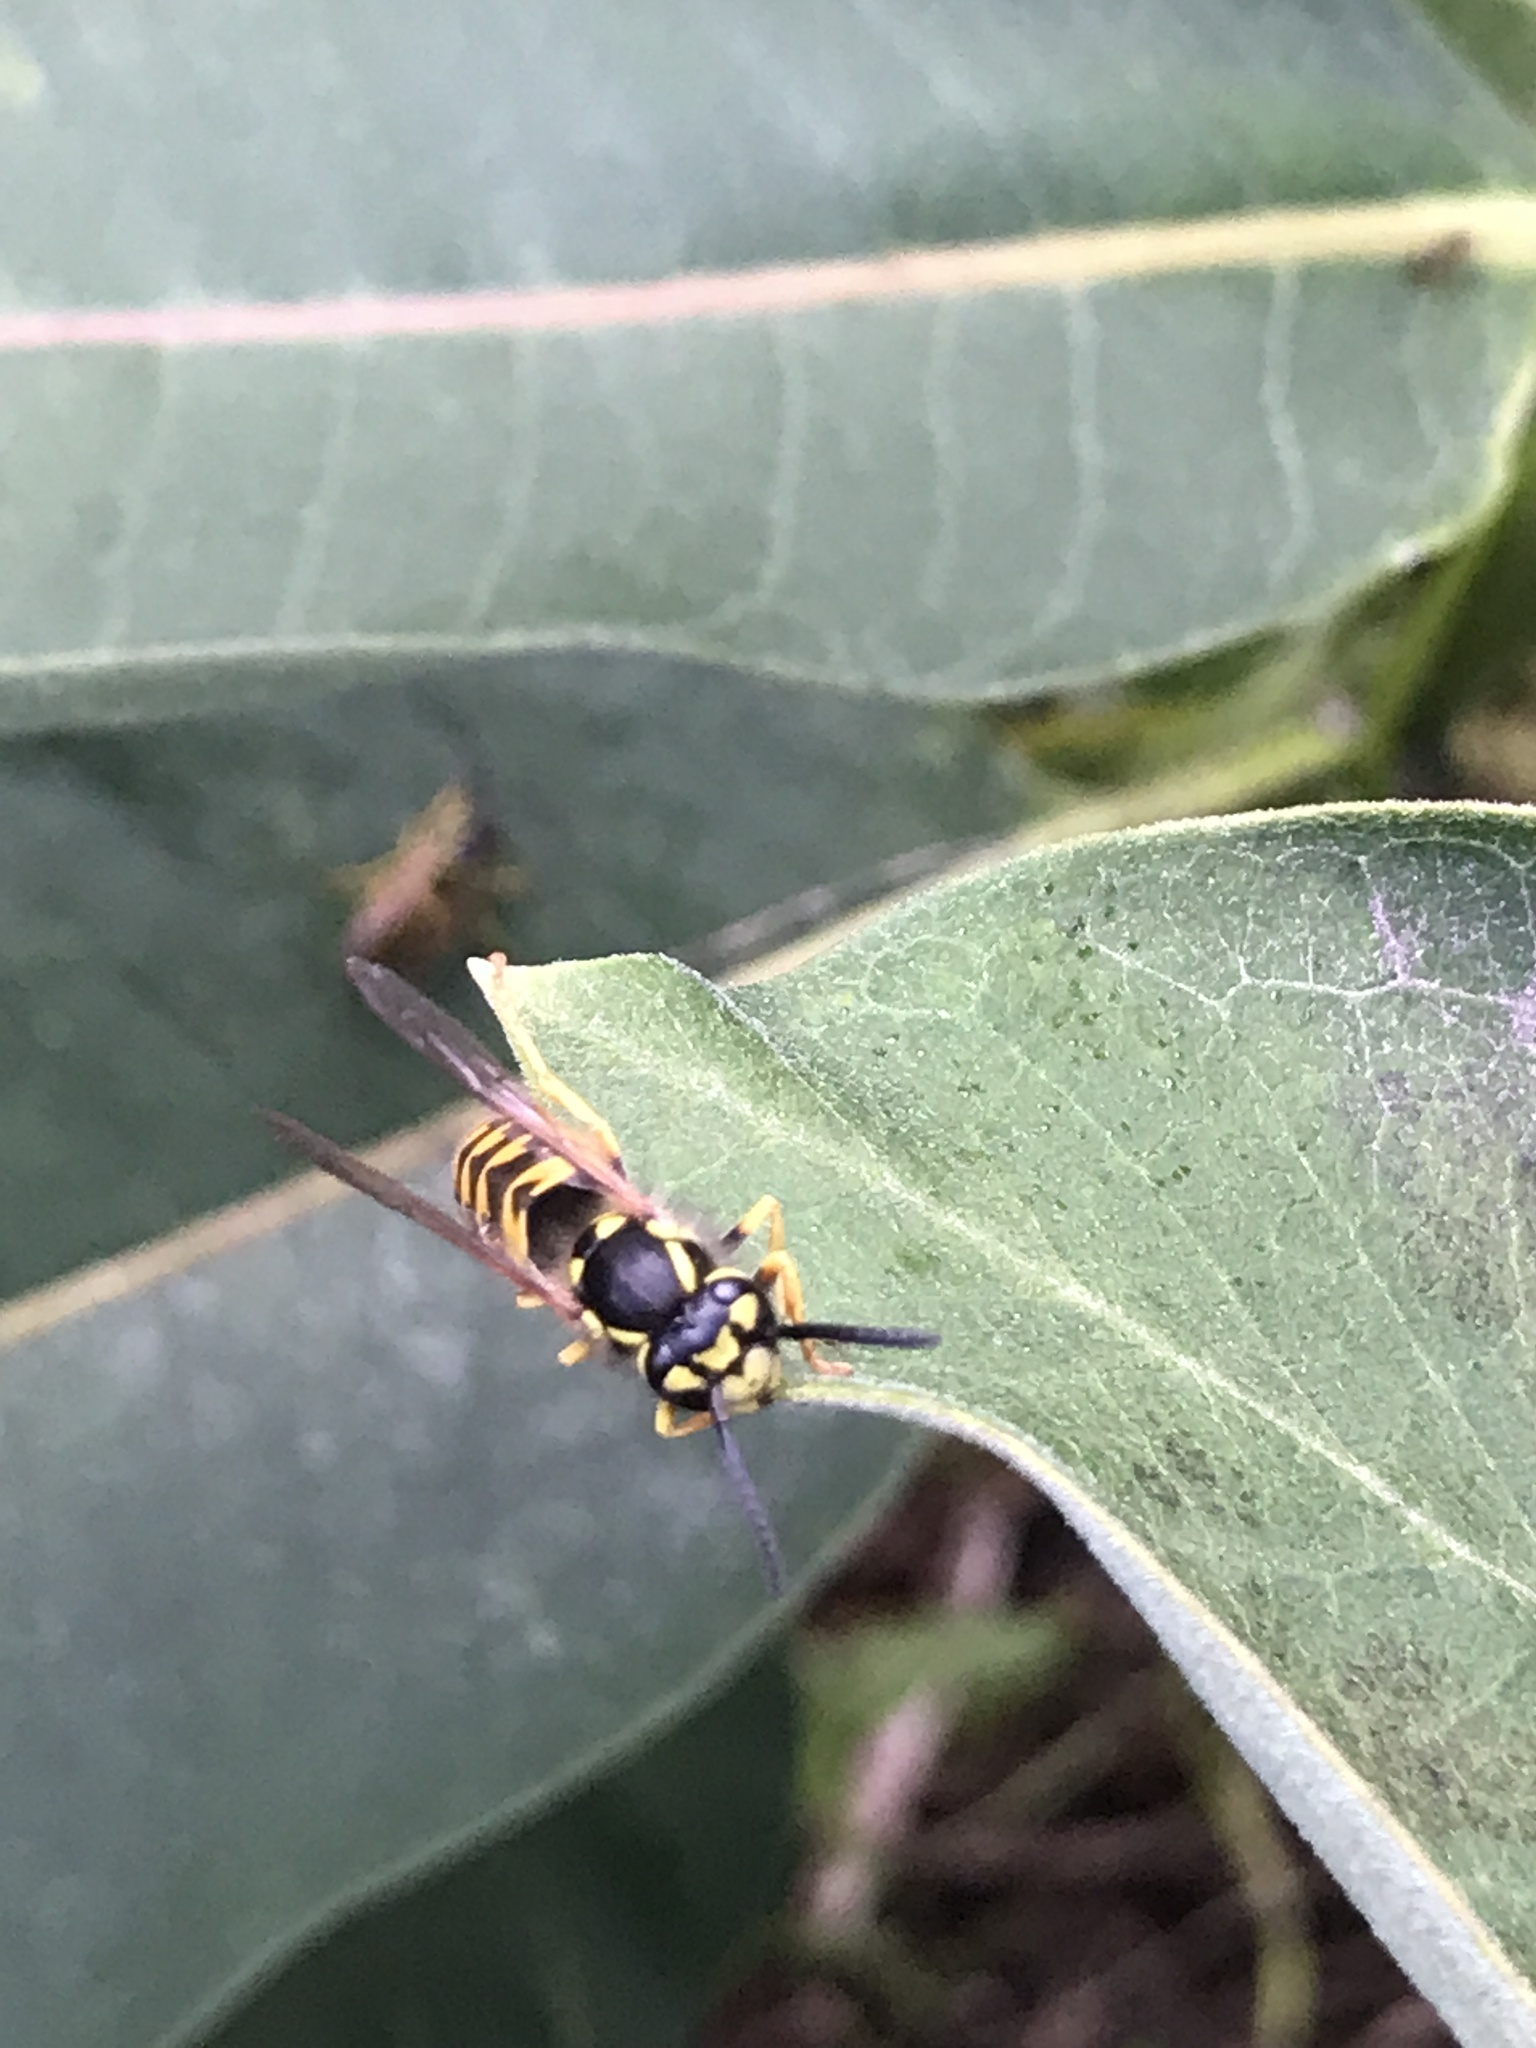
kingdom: Animalia
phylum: Arthropoda
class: Insecta
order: Hymenoptera
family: Vespidae
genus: Vespula
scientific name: Vespula germanica
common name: German wasp
